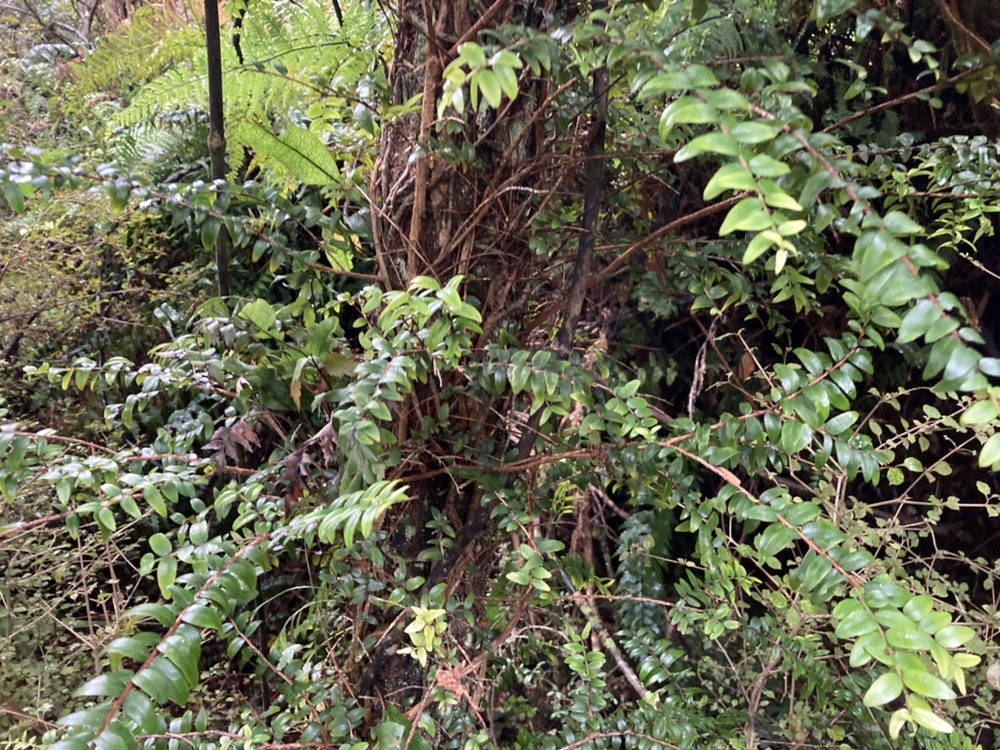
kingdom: Plantae
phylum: Tracheophyta
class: Magnoliopsida
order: Myrtales
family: Myrtaceae
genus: Metrosideros
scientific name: Metrosideros diffusa
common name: Small ratavine
